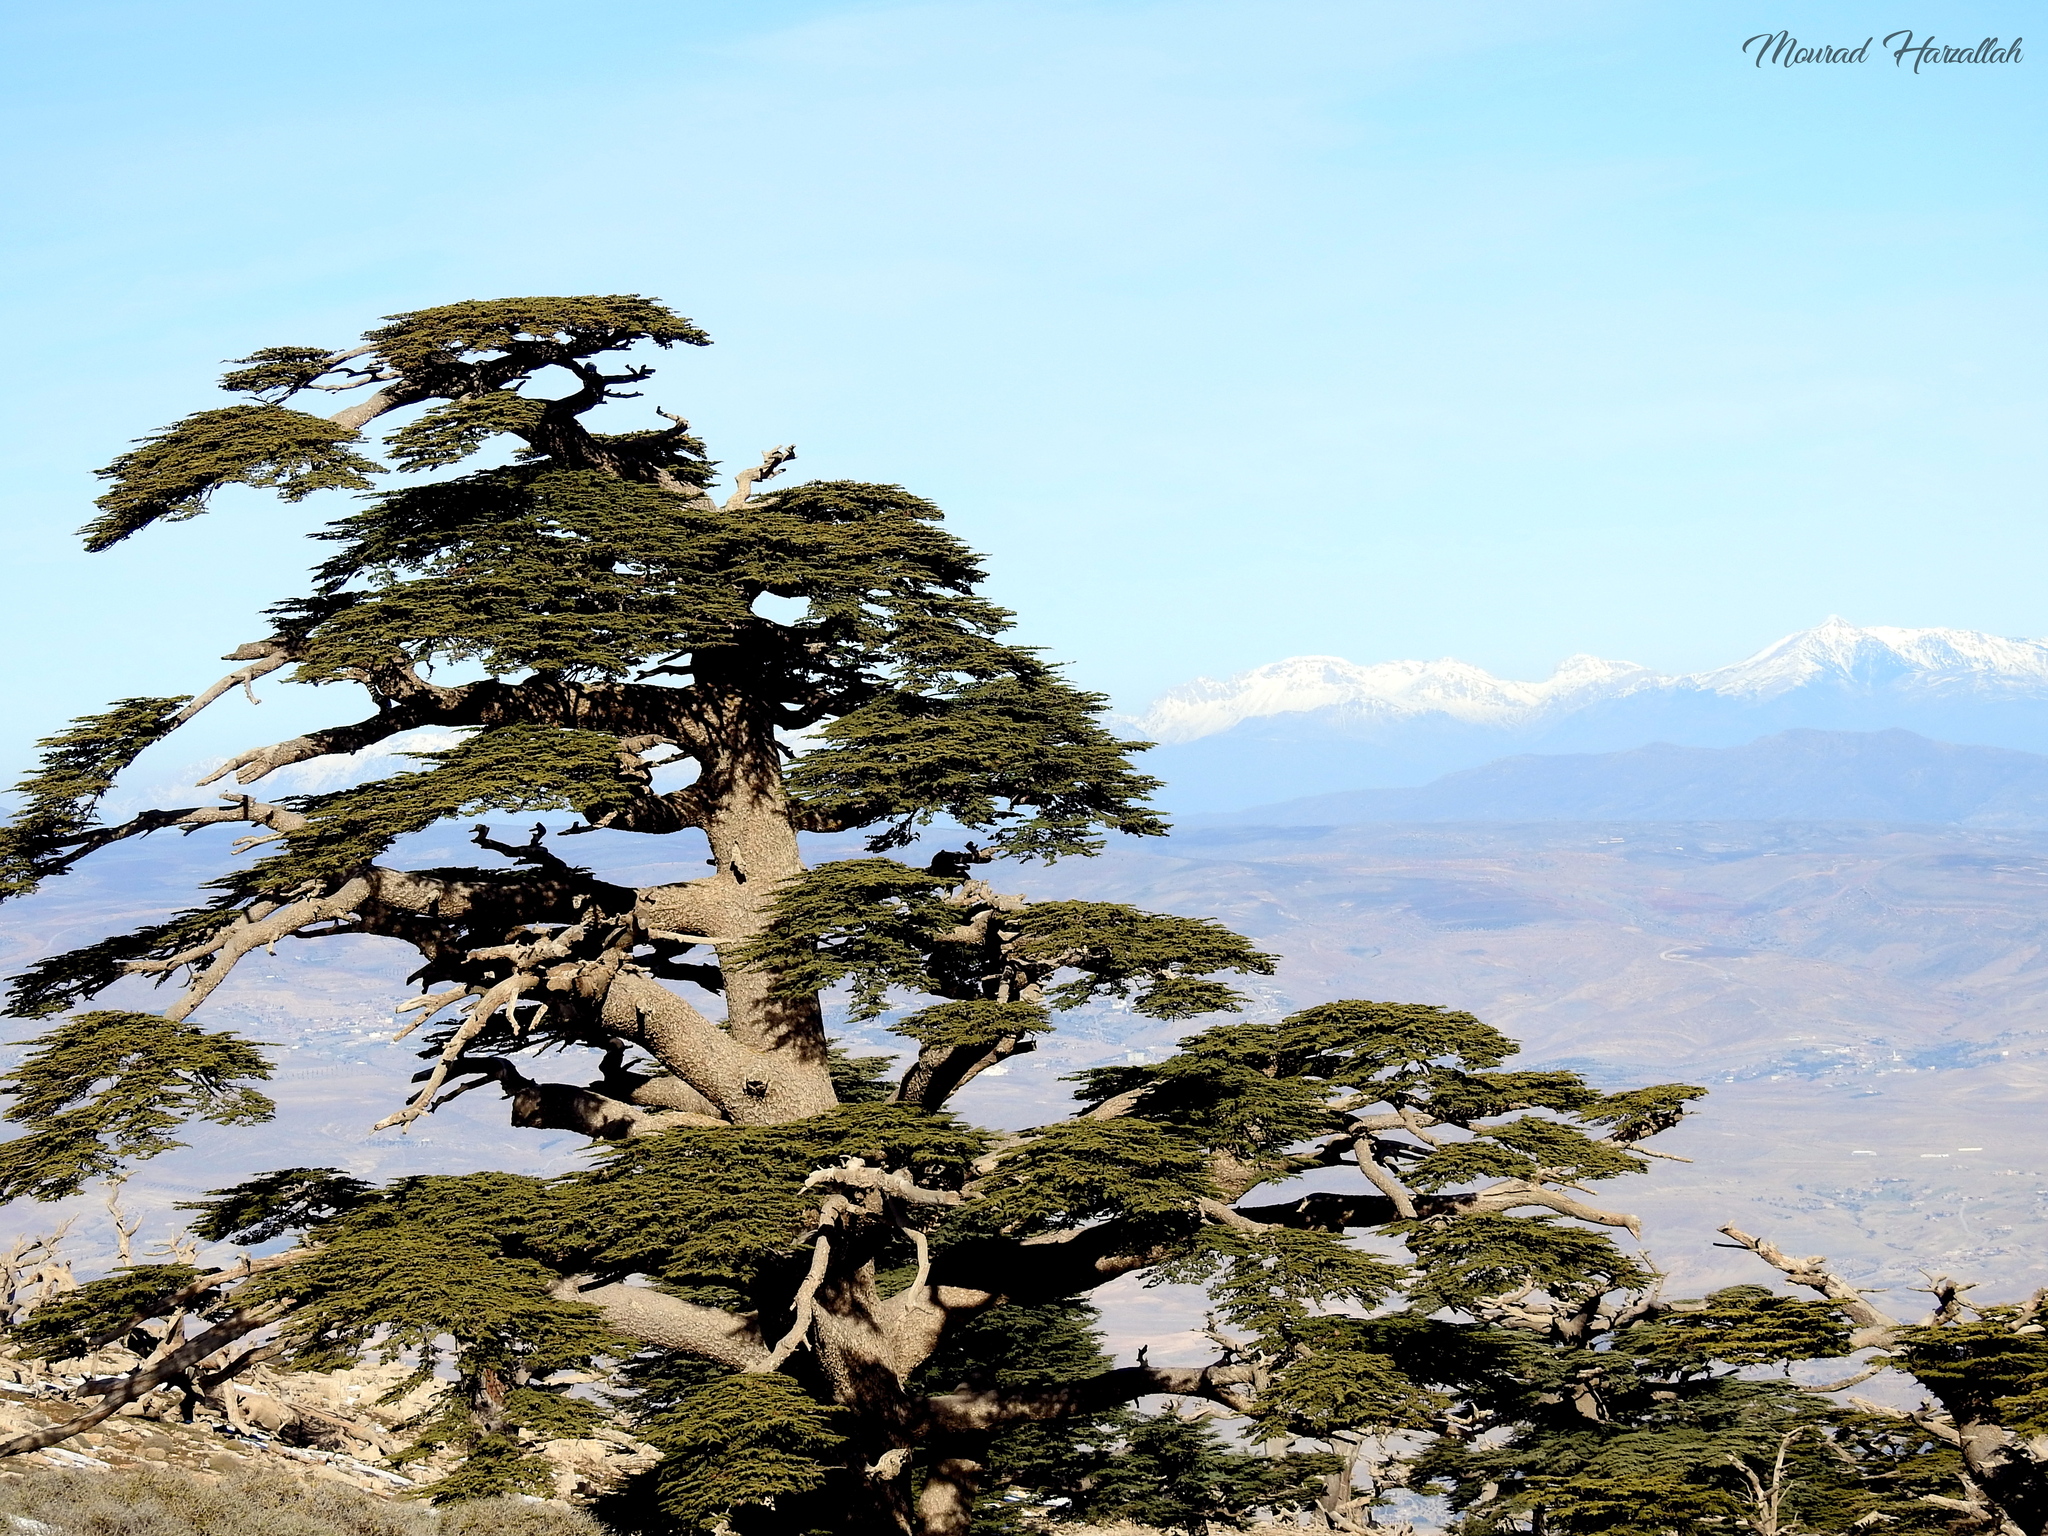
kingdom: Plantae
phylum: Tracheophyta
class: Pinopsida
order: Pinales
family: Pinaceae
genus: Cedrus
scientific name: Cedrus atlantica
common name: Atlas cedar
